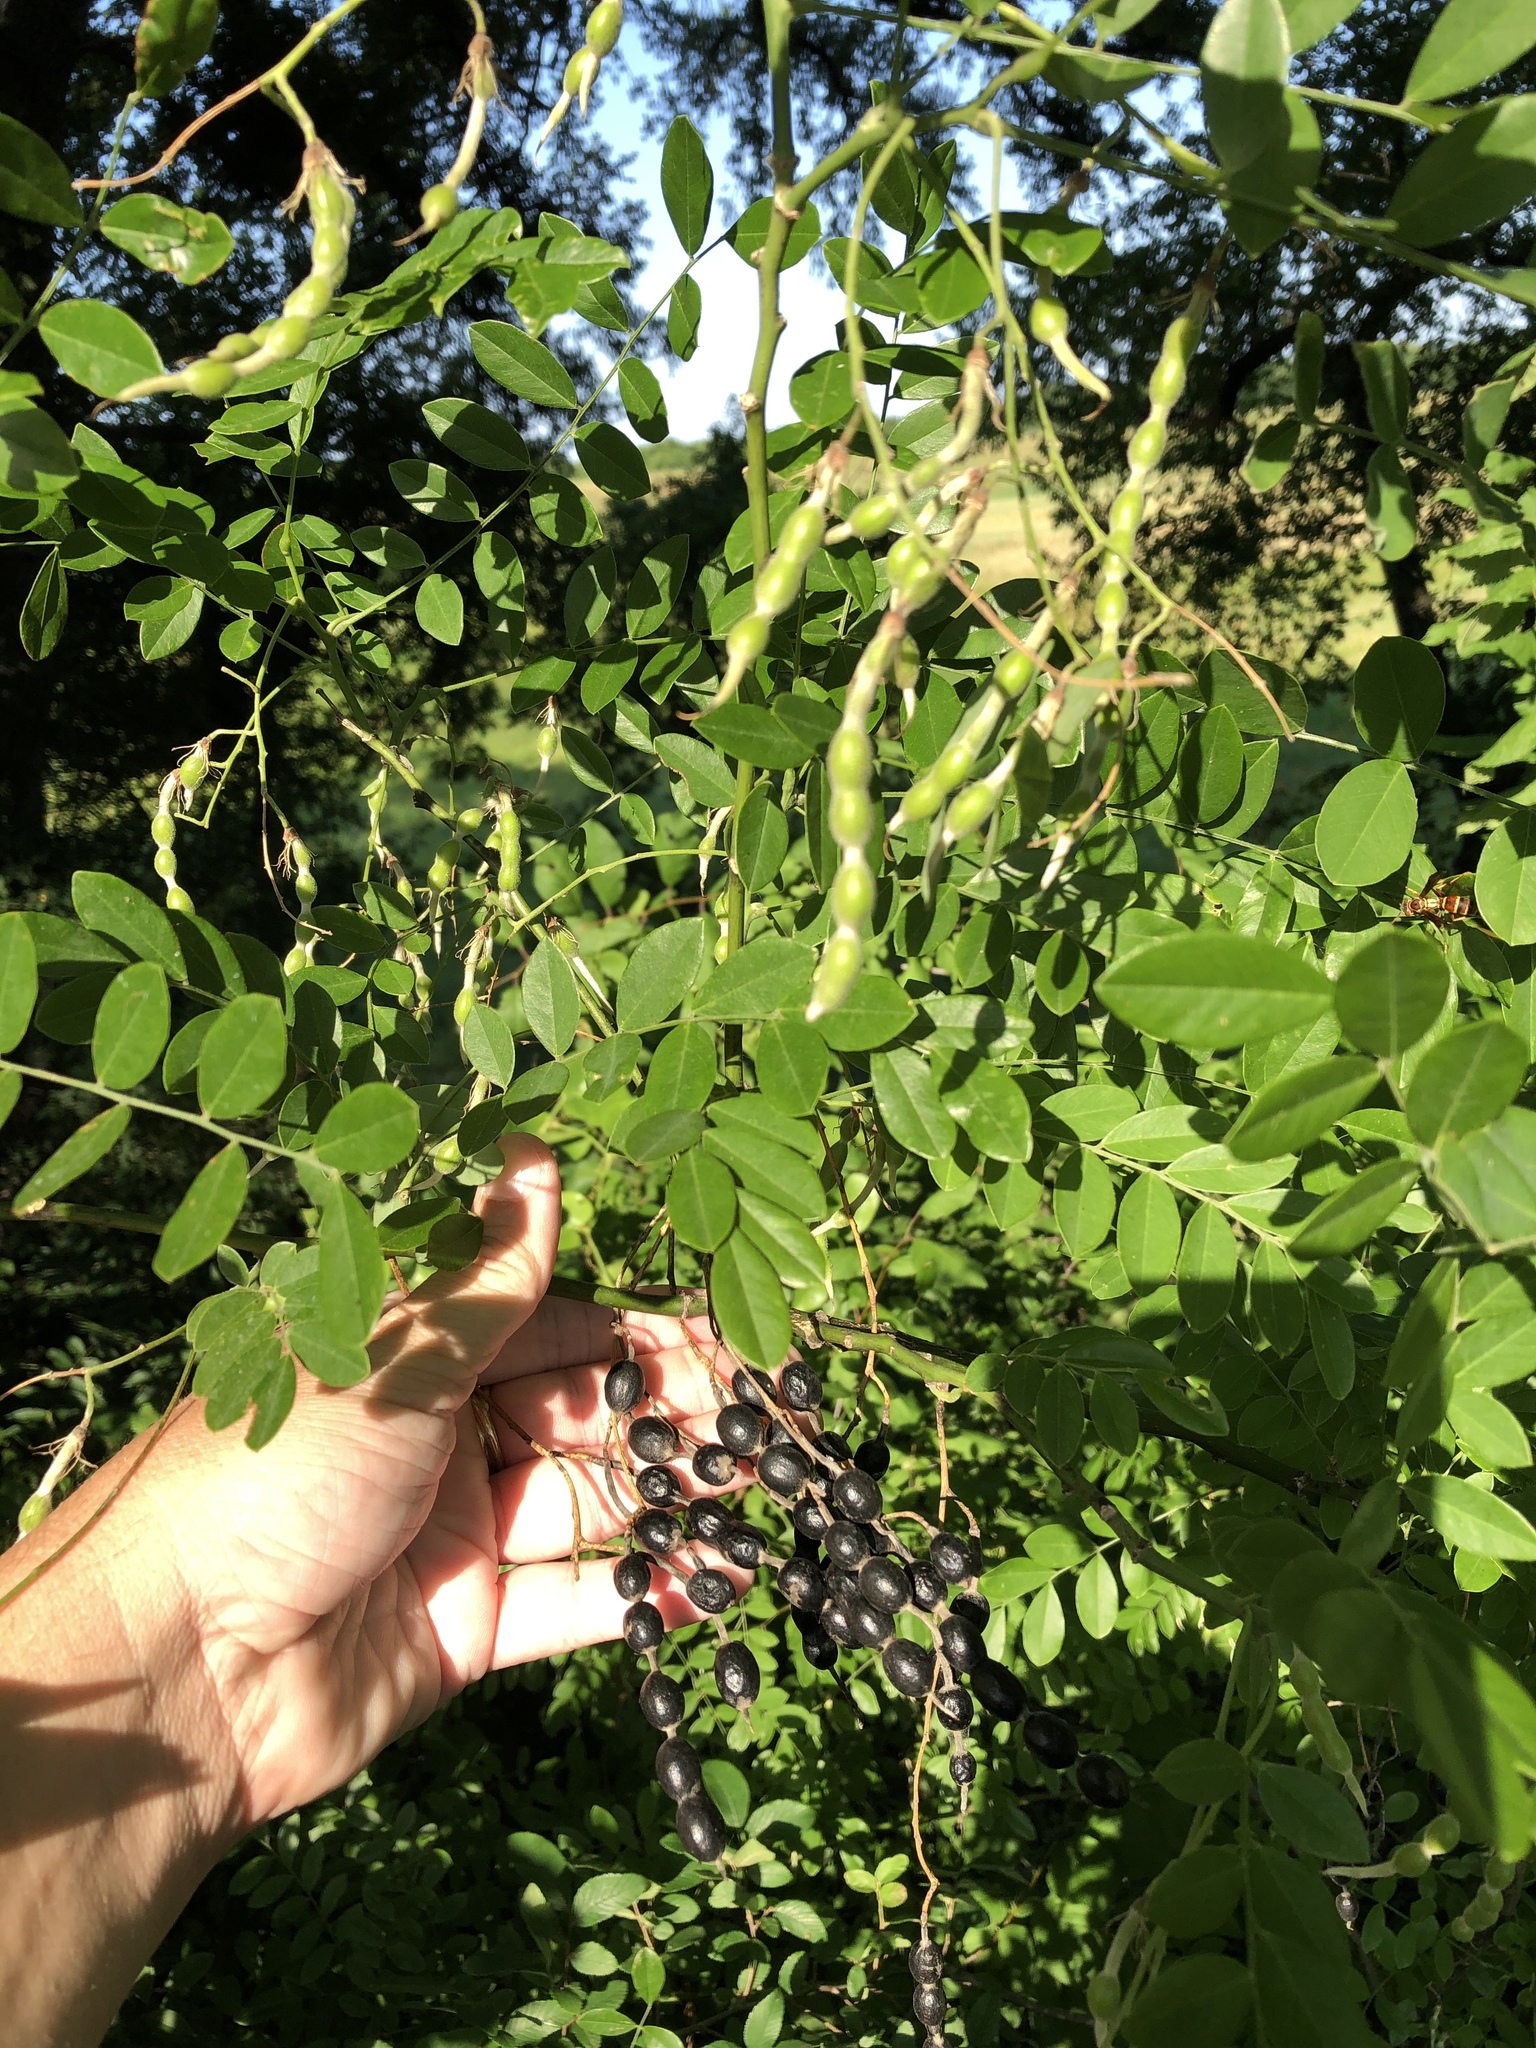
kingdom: Plantae
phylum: Tracheophyta
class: Magnoliopsida
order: Fabales
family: Fabaceae
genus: Styphnolobium
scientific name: Styphnolobium affine
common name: Texas sophora
